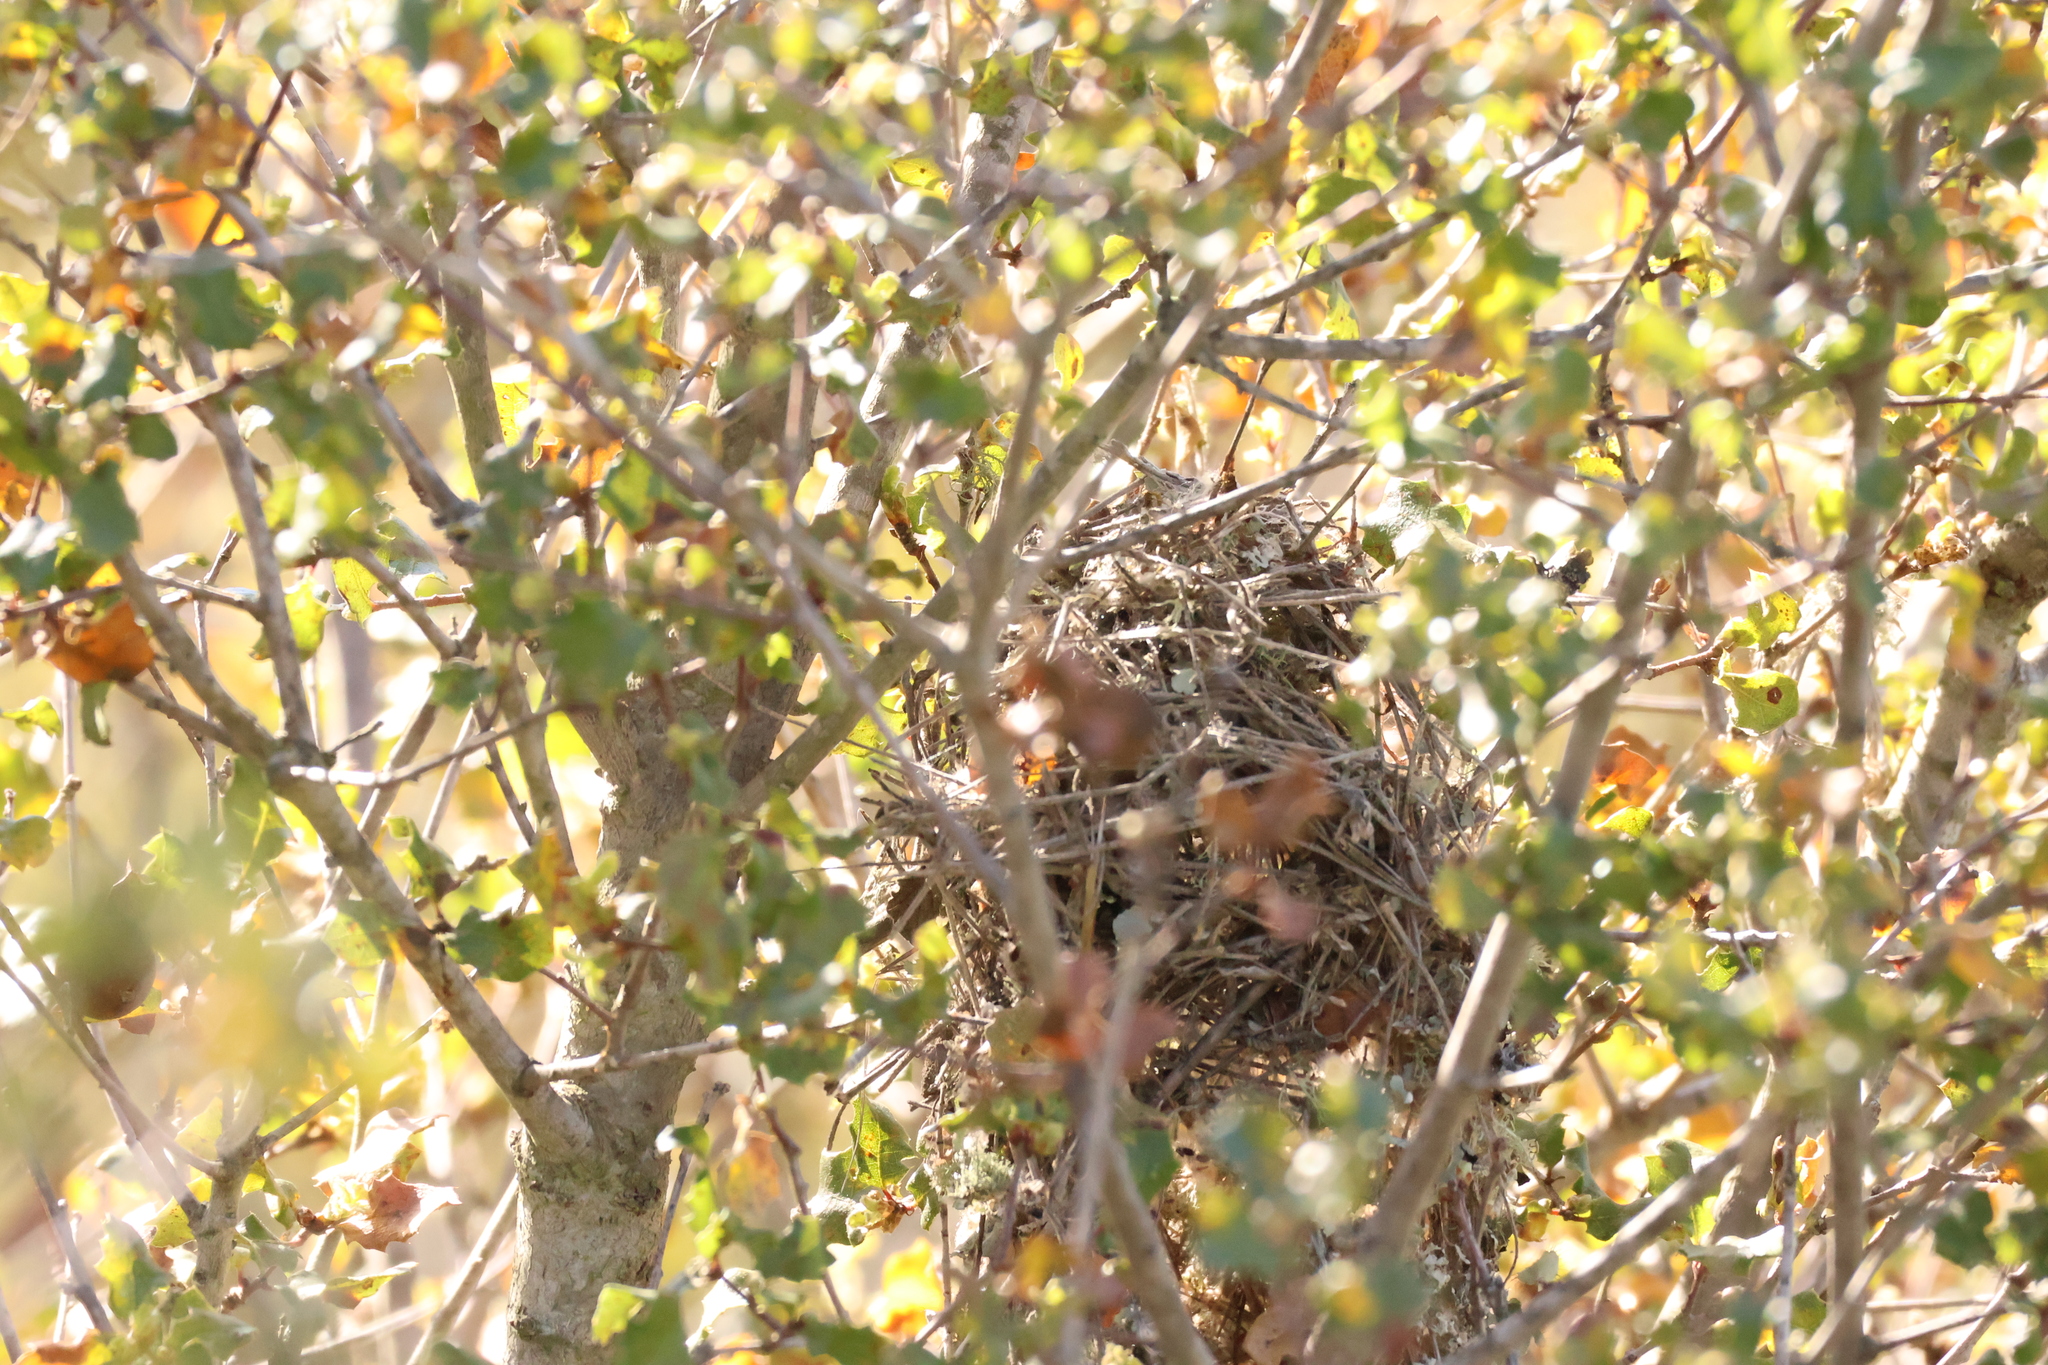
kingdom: Animalia
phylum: Chordata
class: Aves
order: Passeriformes
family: Aegithalidae
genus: Psaltriparus
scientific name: Psaltriparus minimus
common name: American bushtit
